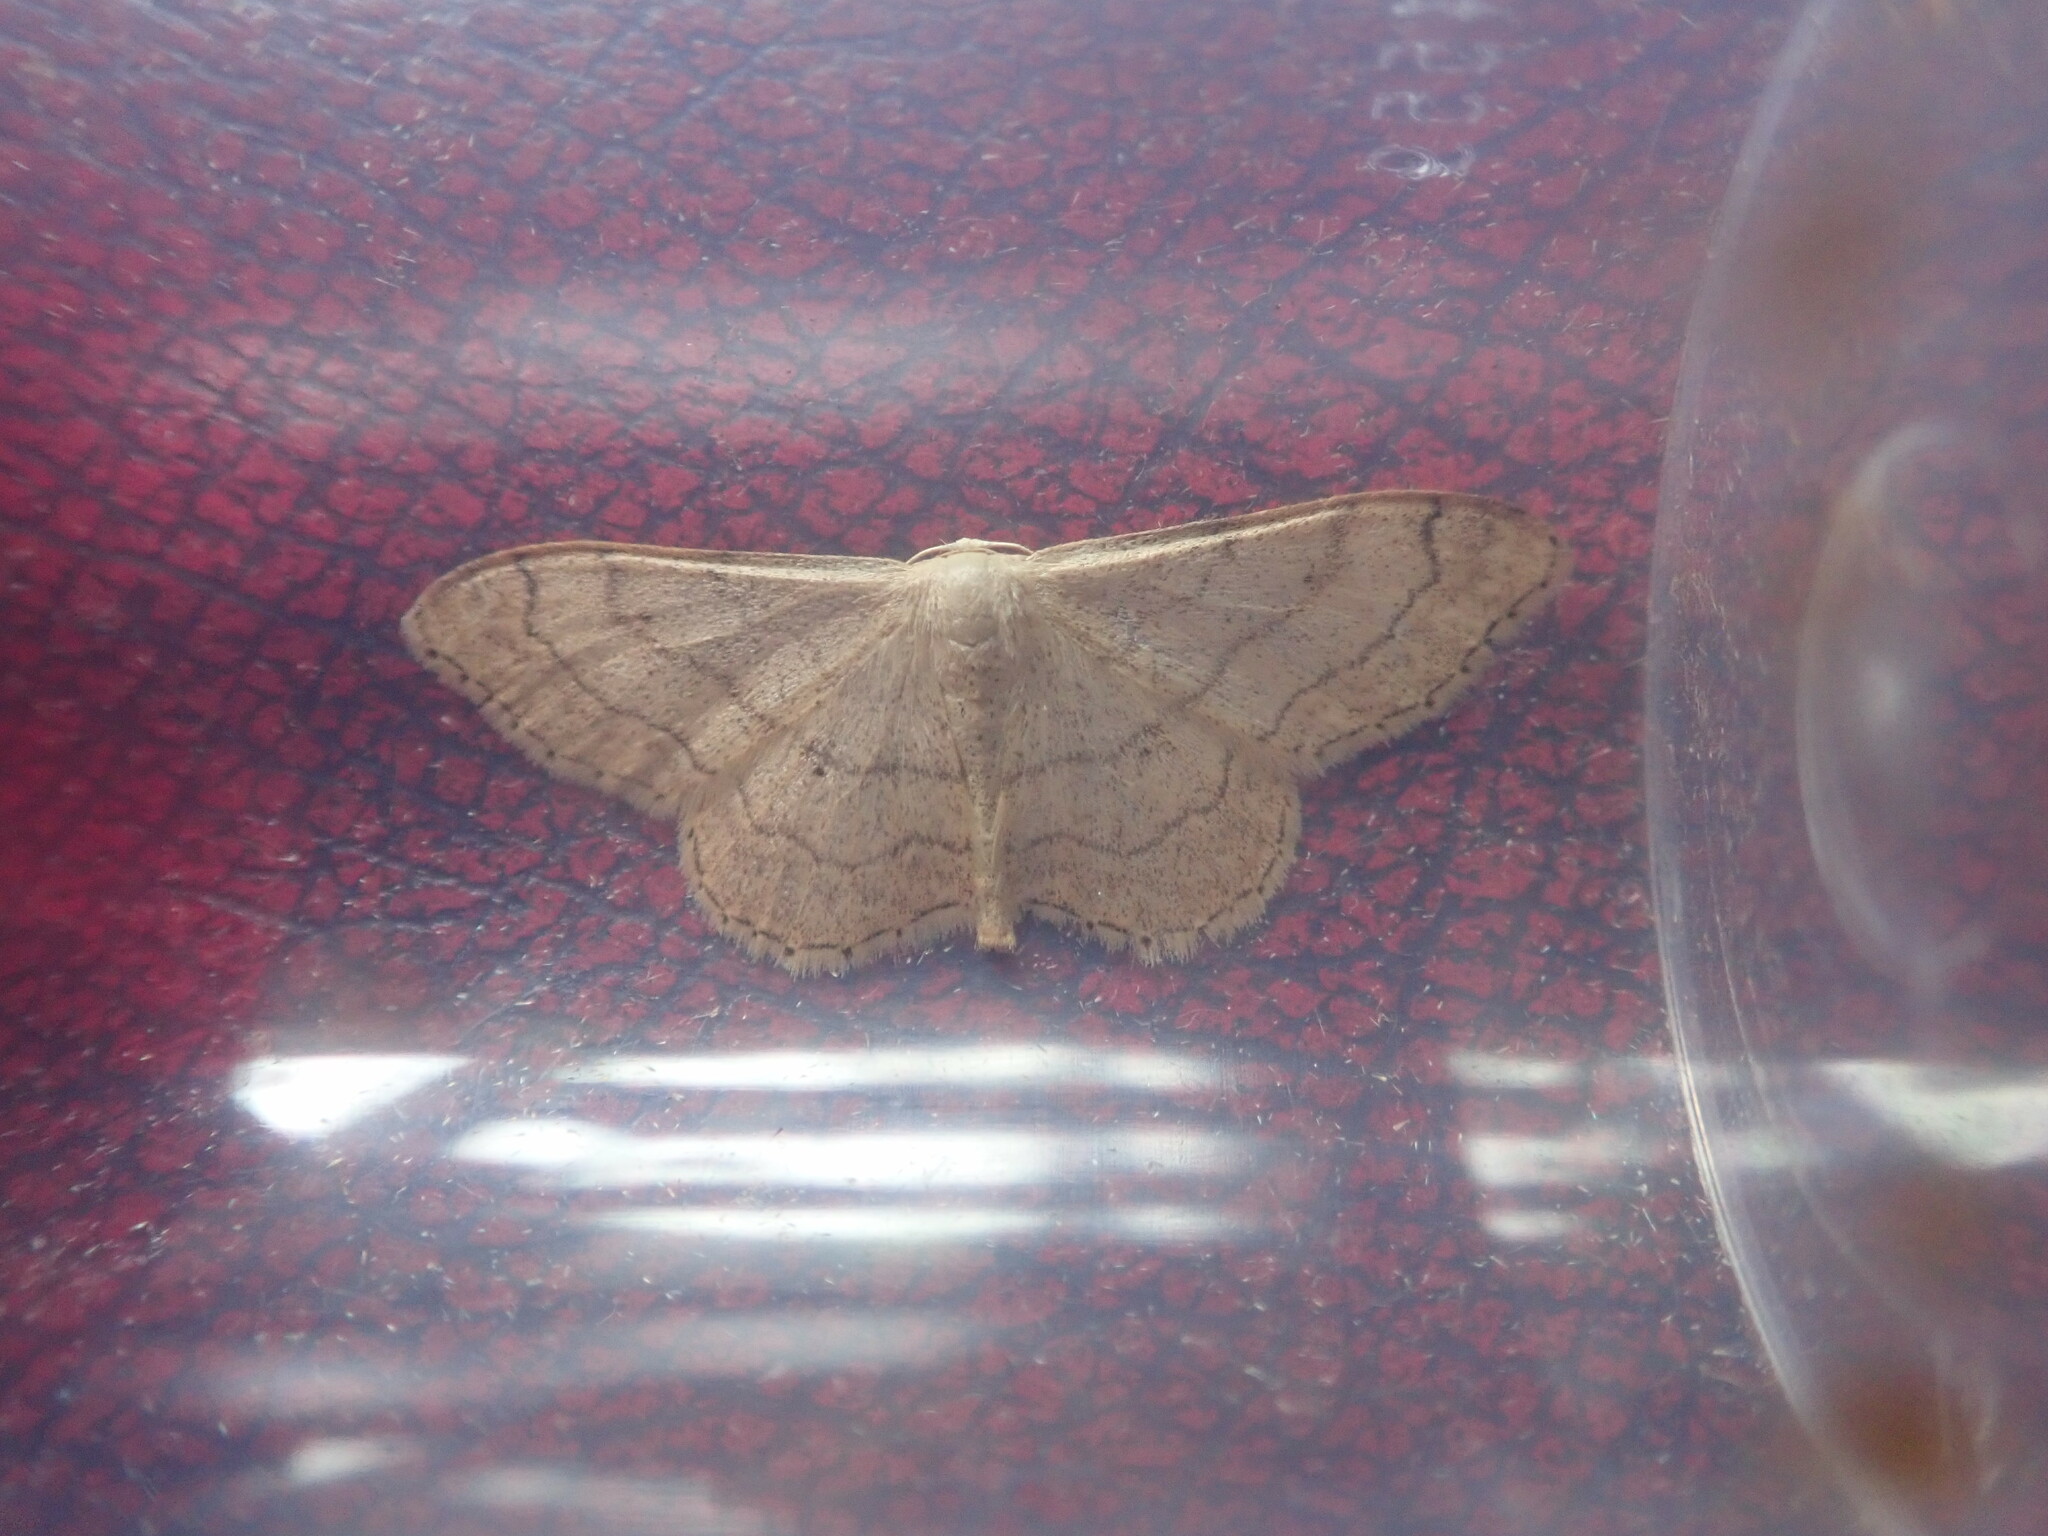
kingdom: Animalia
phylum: Arthropoda
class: Insecta
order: Lepidoptera
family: Geometridae
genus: Idaea
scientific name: Idaea aversata
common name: Riband wave
